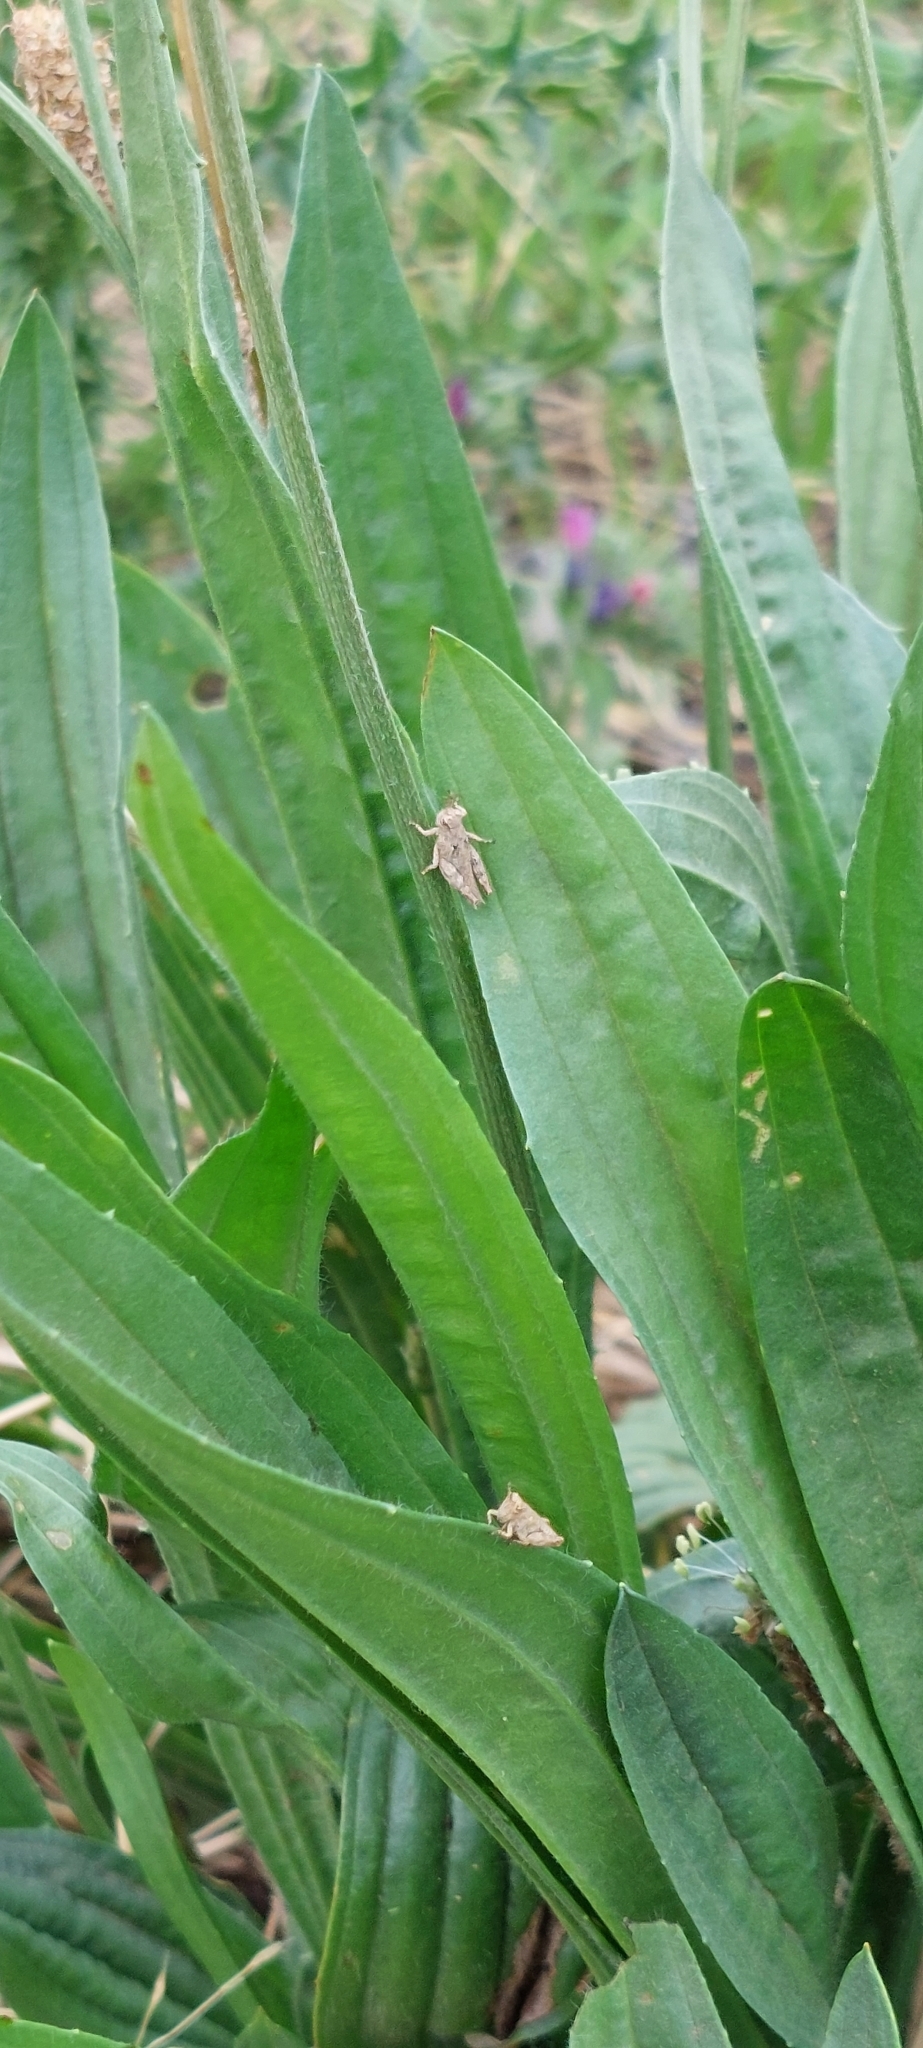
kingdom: Plantae
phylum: Tracheophyta
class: Magnoliopsida
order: Lamiales
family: Plantaginaceae
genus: Plantago
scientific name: Plantago lanceolata
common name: Ribwort plantain
